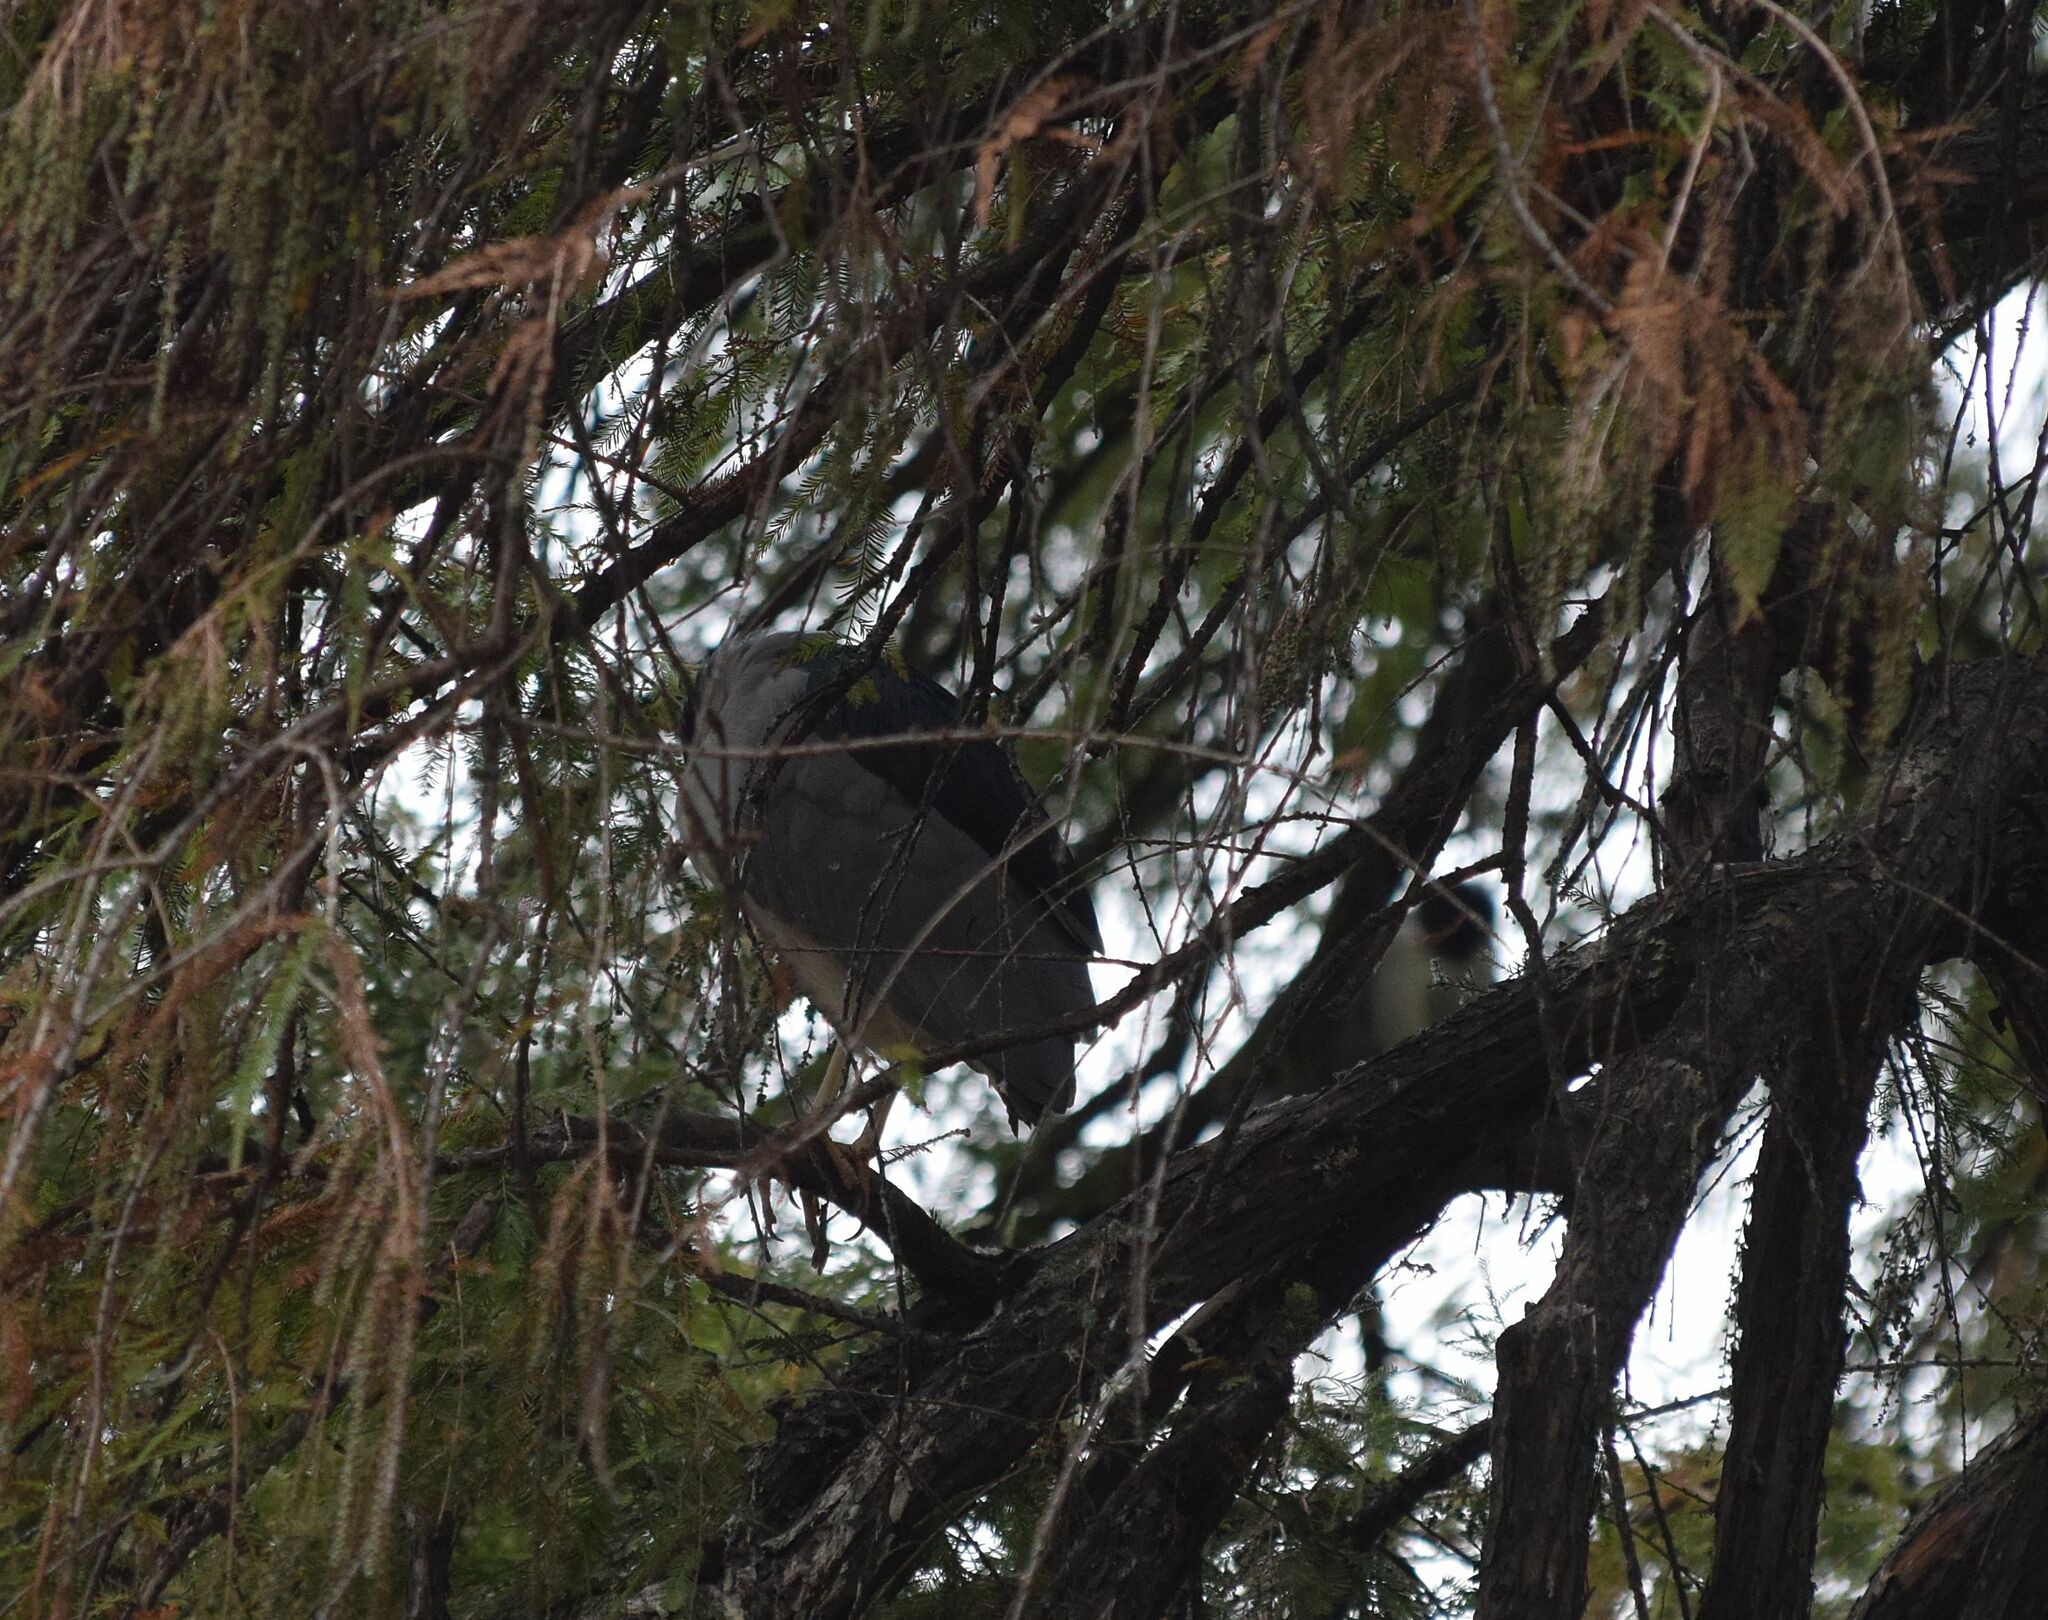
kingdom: Animalia
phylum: Chordata
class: Aves
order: Pelecaniformes
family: Ardeidae
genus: Nycticorax
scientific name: Nycticorax nycticorax
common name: Black-crowned night heron
